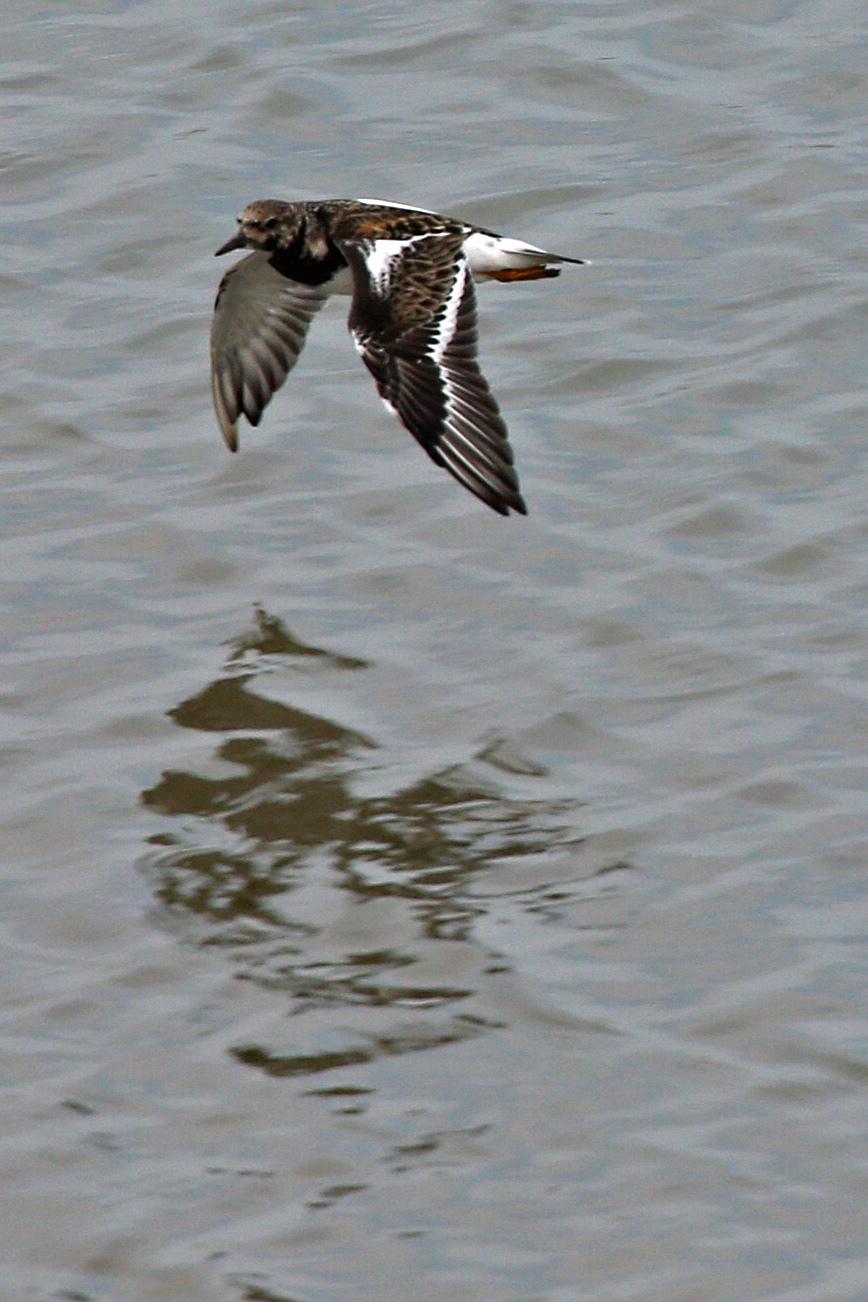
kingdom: Animalia
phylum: Chordata
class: Aves
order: Charadriiformes
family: Scolopacidae
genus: Arenaria
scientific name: Arenaria interpres
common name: Ruddy turnstone
